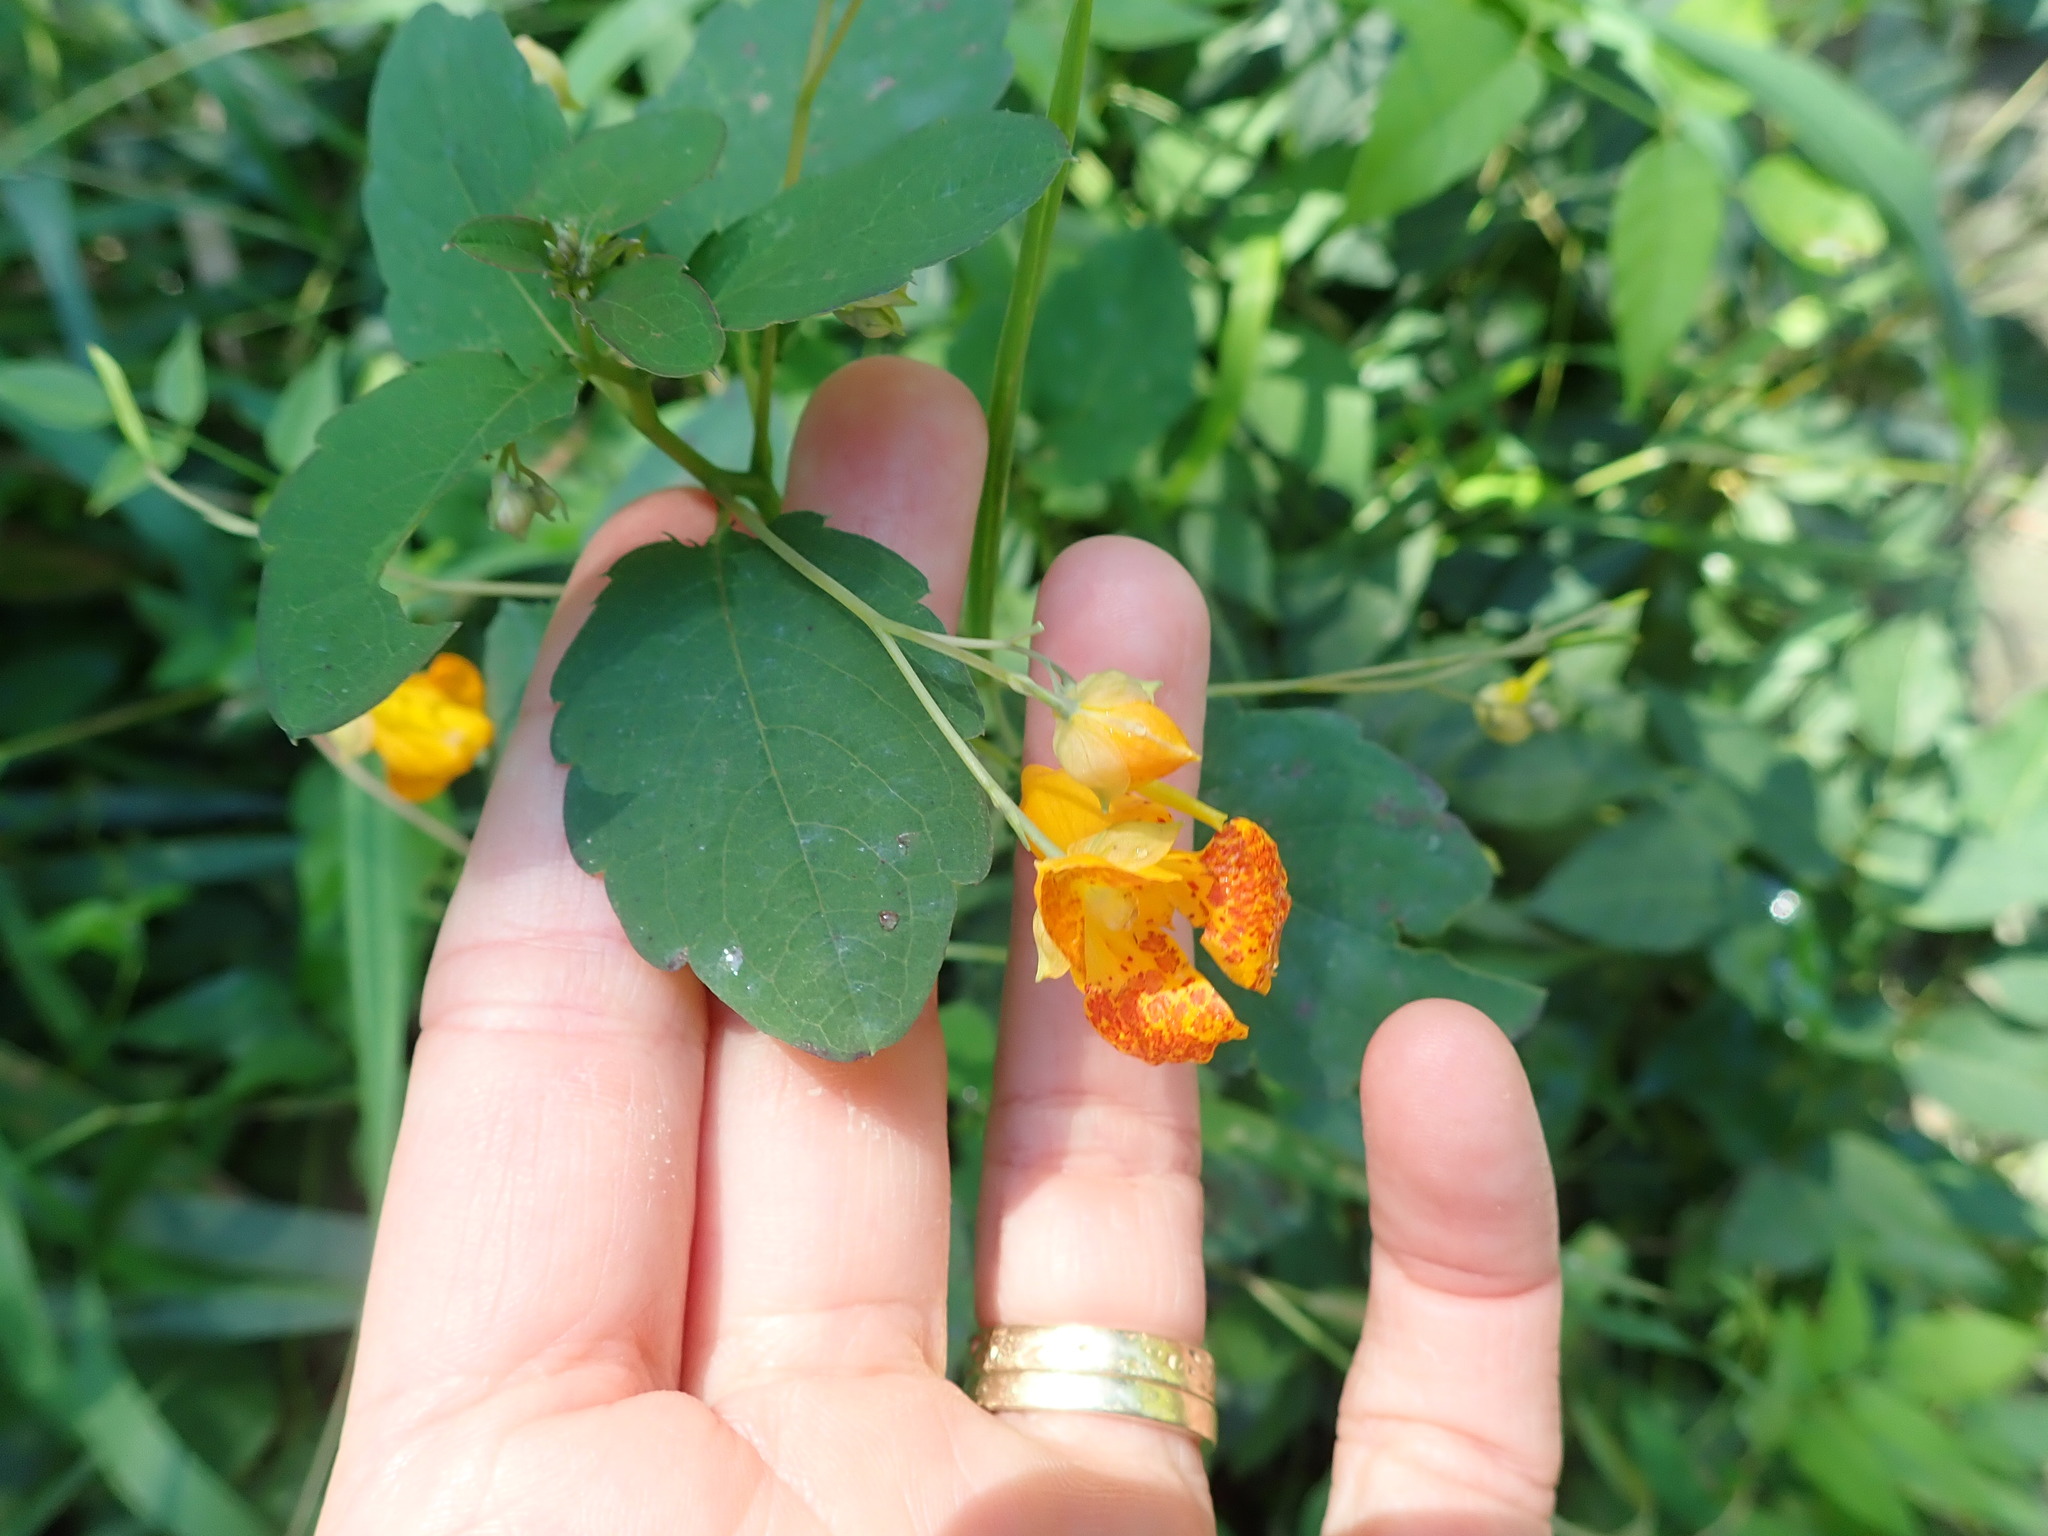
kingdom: Plantae
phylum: Tracheophyta
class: Magnoliopsida
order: Ericales
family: Balsaminaceae
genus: Impatiens
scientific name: Impatiens capensis
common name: Orange balsam
